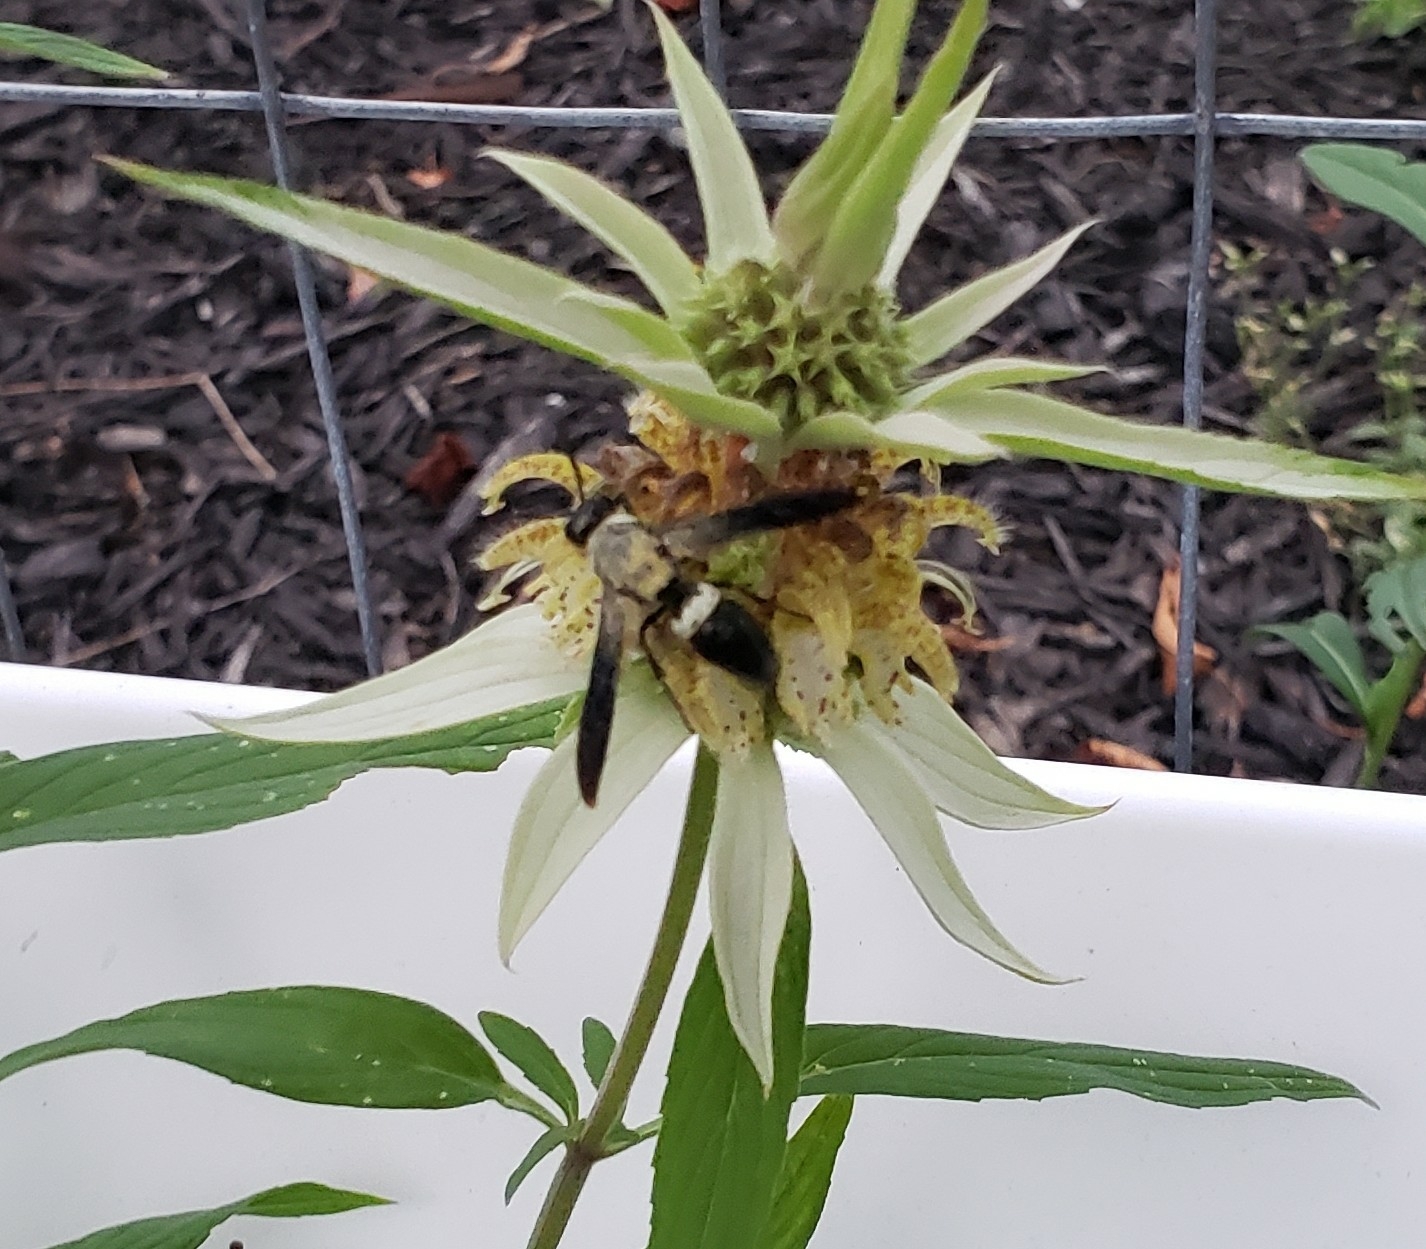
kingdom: Animalia
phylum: Arthropoda
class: Insecta
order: Hymenoptera
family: Eumenidae
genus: Monobia
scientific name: Monobia quadridens
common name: Four-toothed mason wasp
